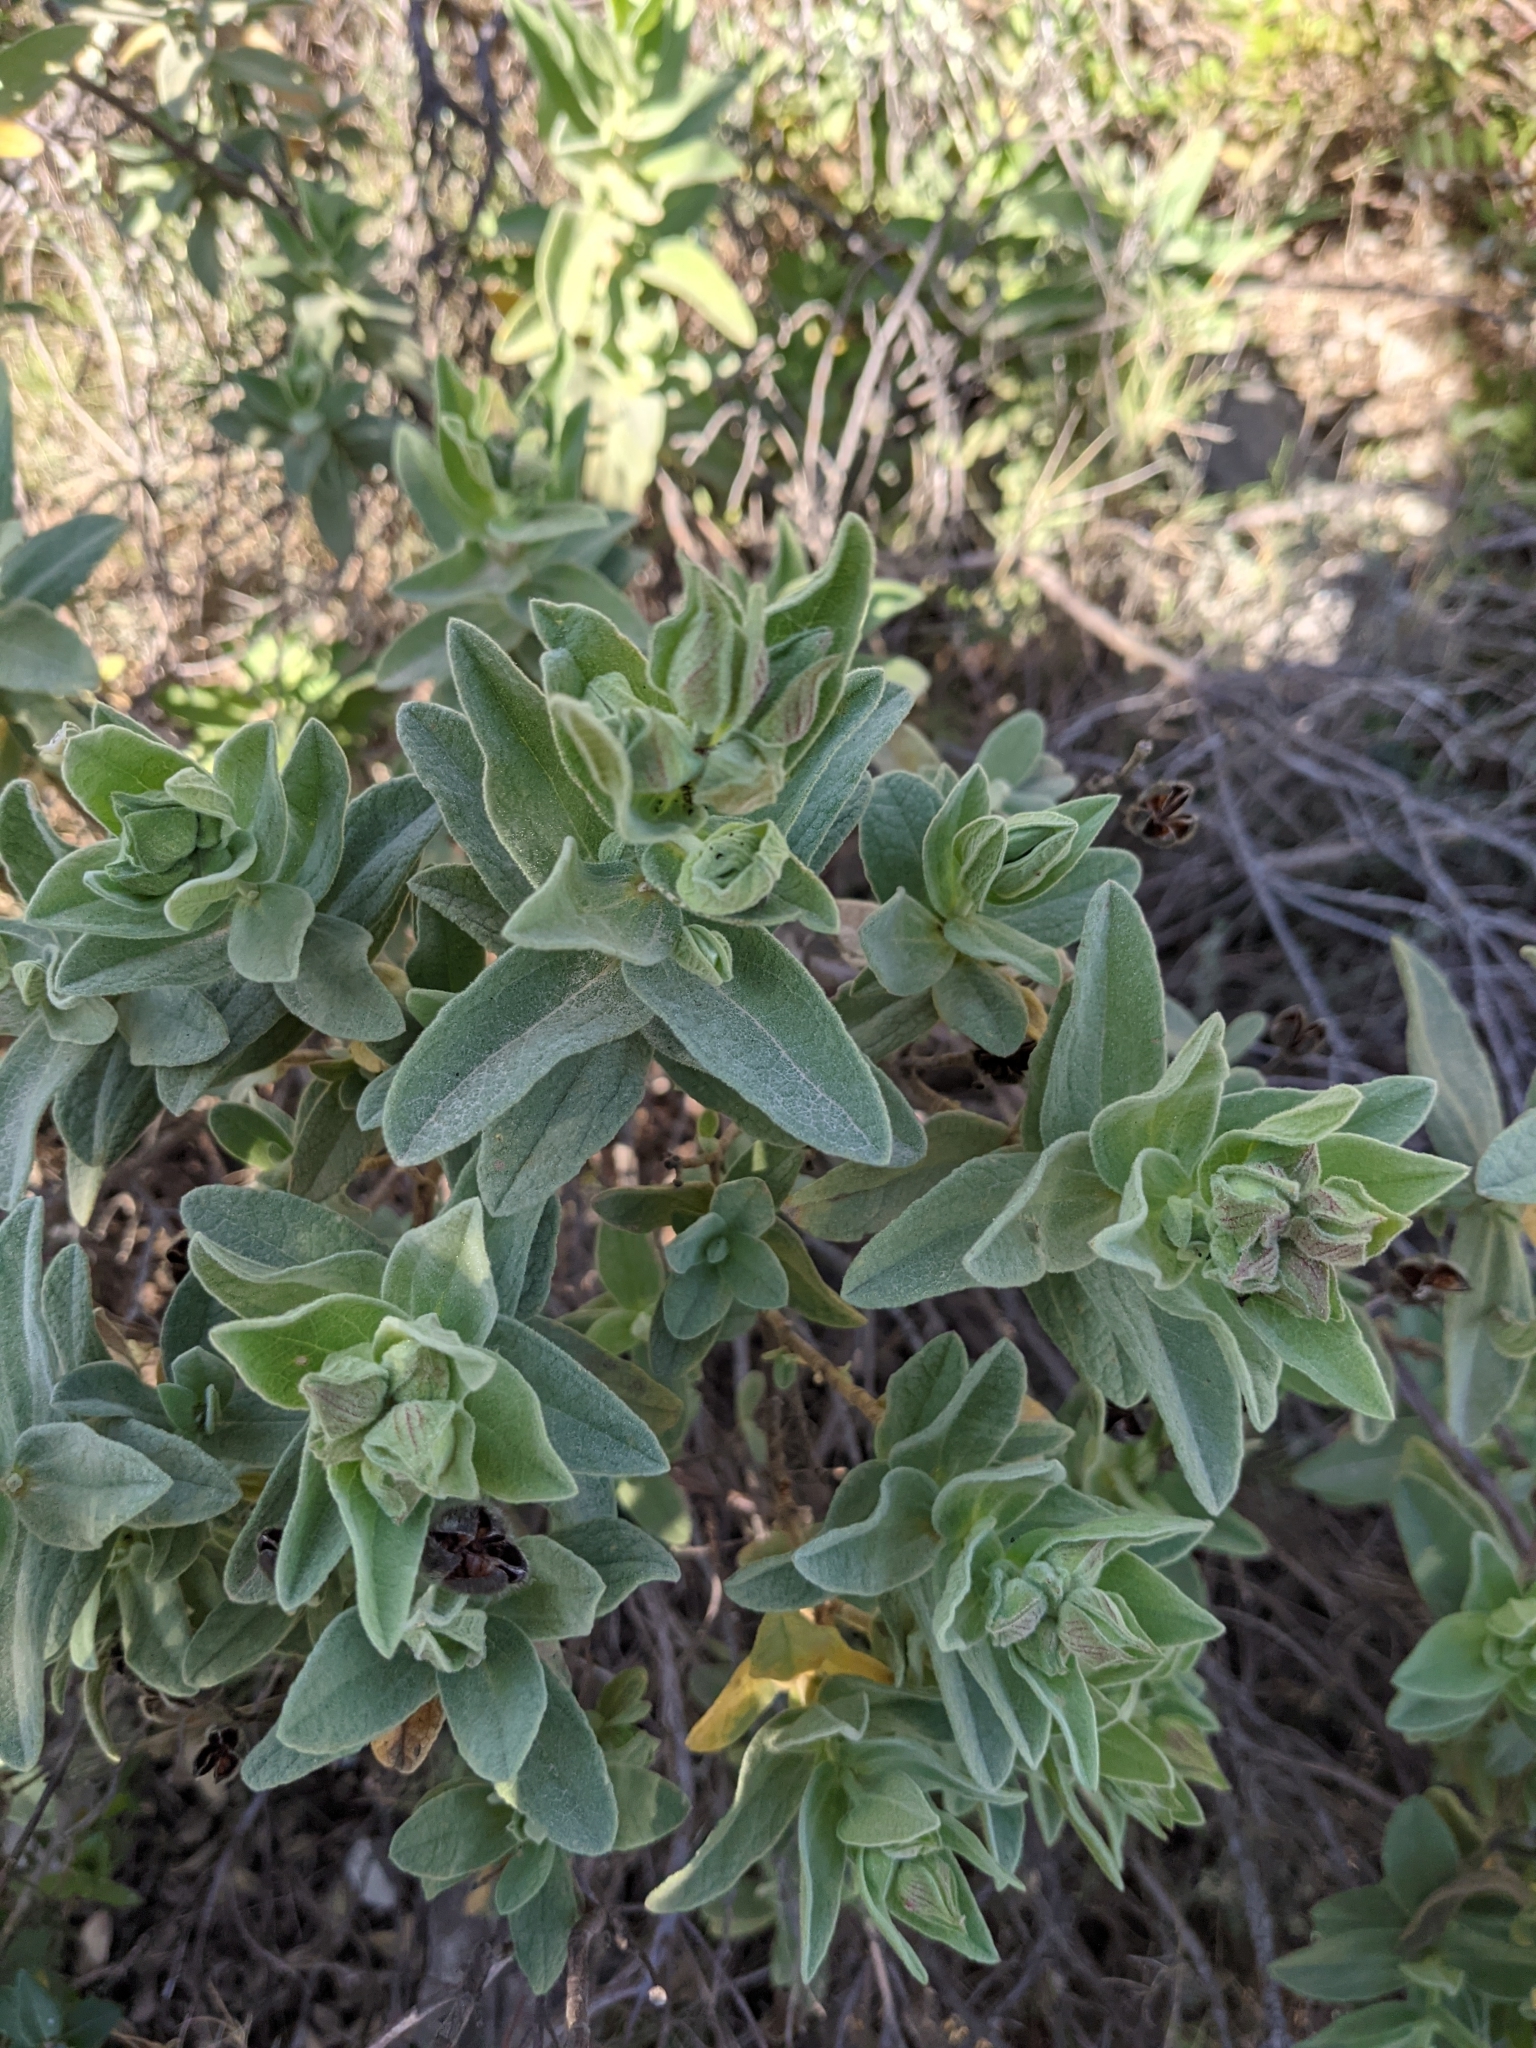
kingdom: Plantae
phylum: Tracheophyta
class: Magnoliopsida
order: Malvales
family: Cistaceae
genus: Cistus
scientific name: Cistus albidus
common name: White-leaf rock-rose
